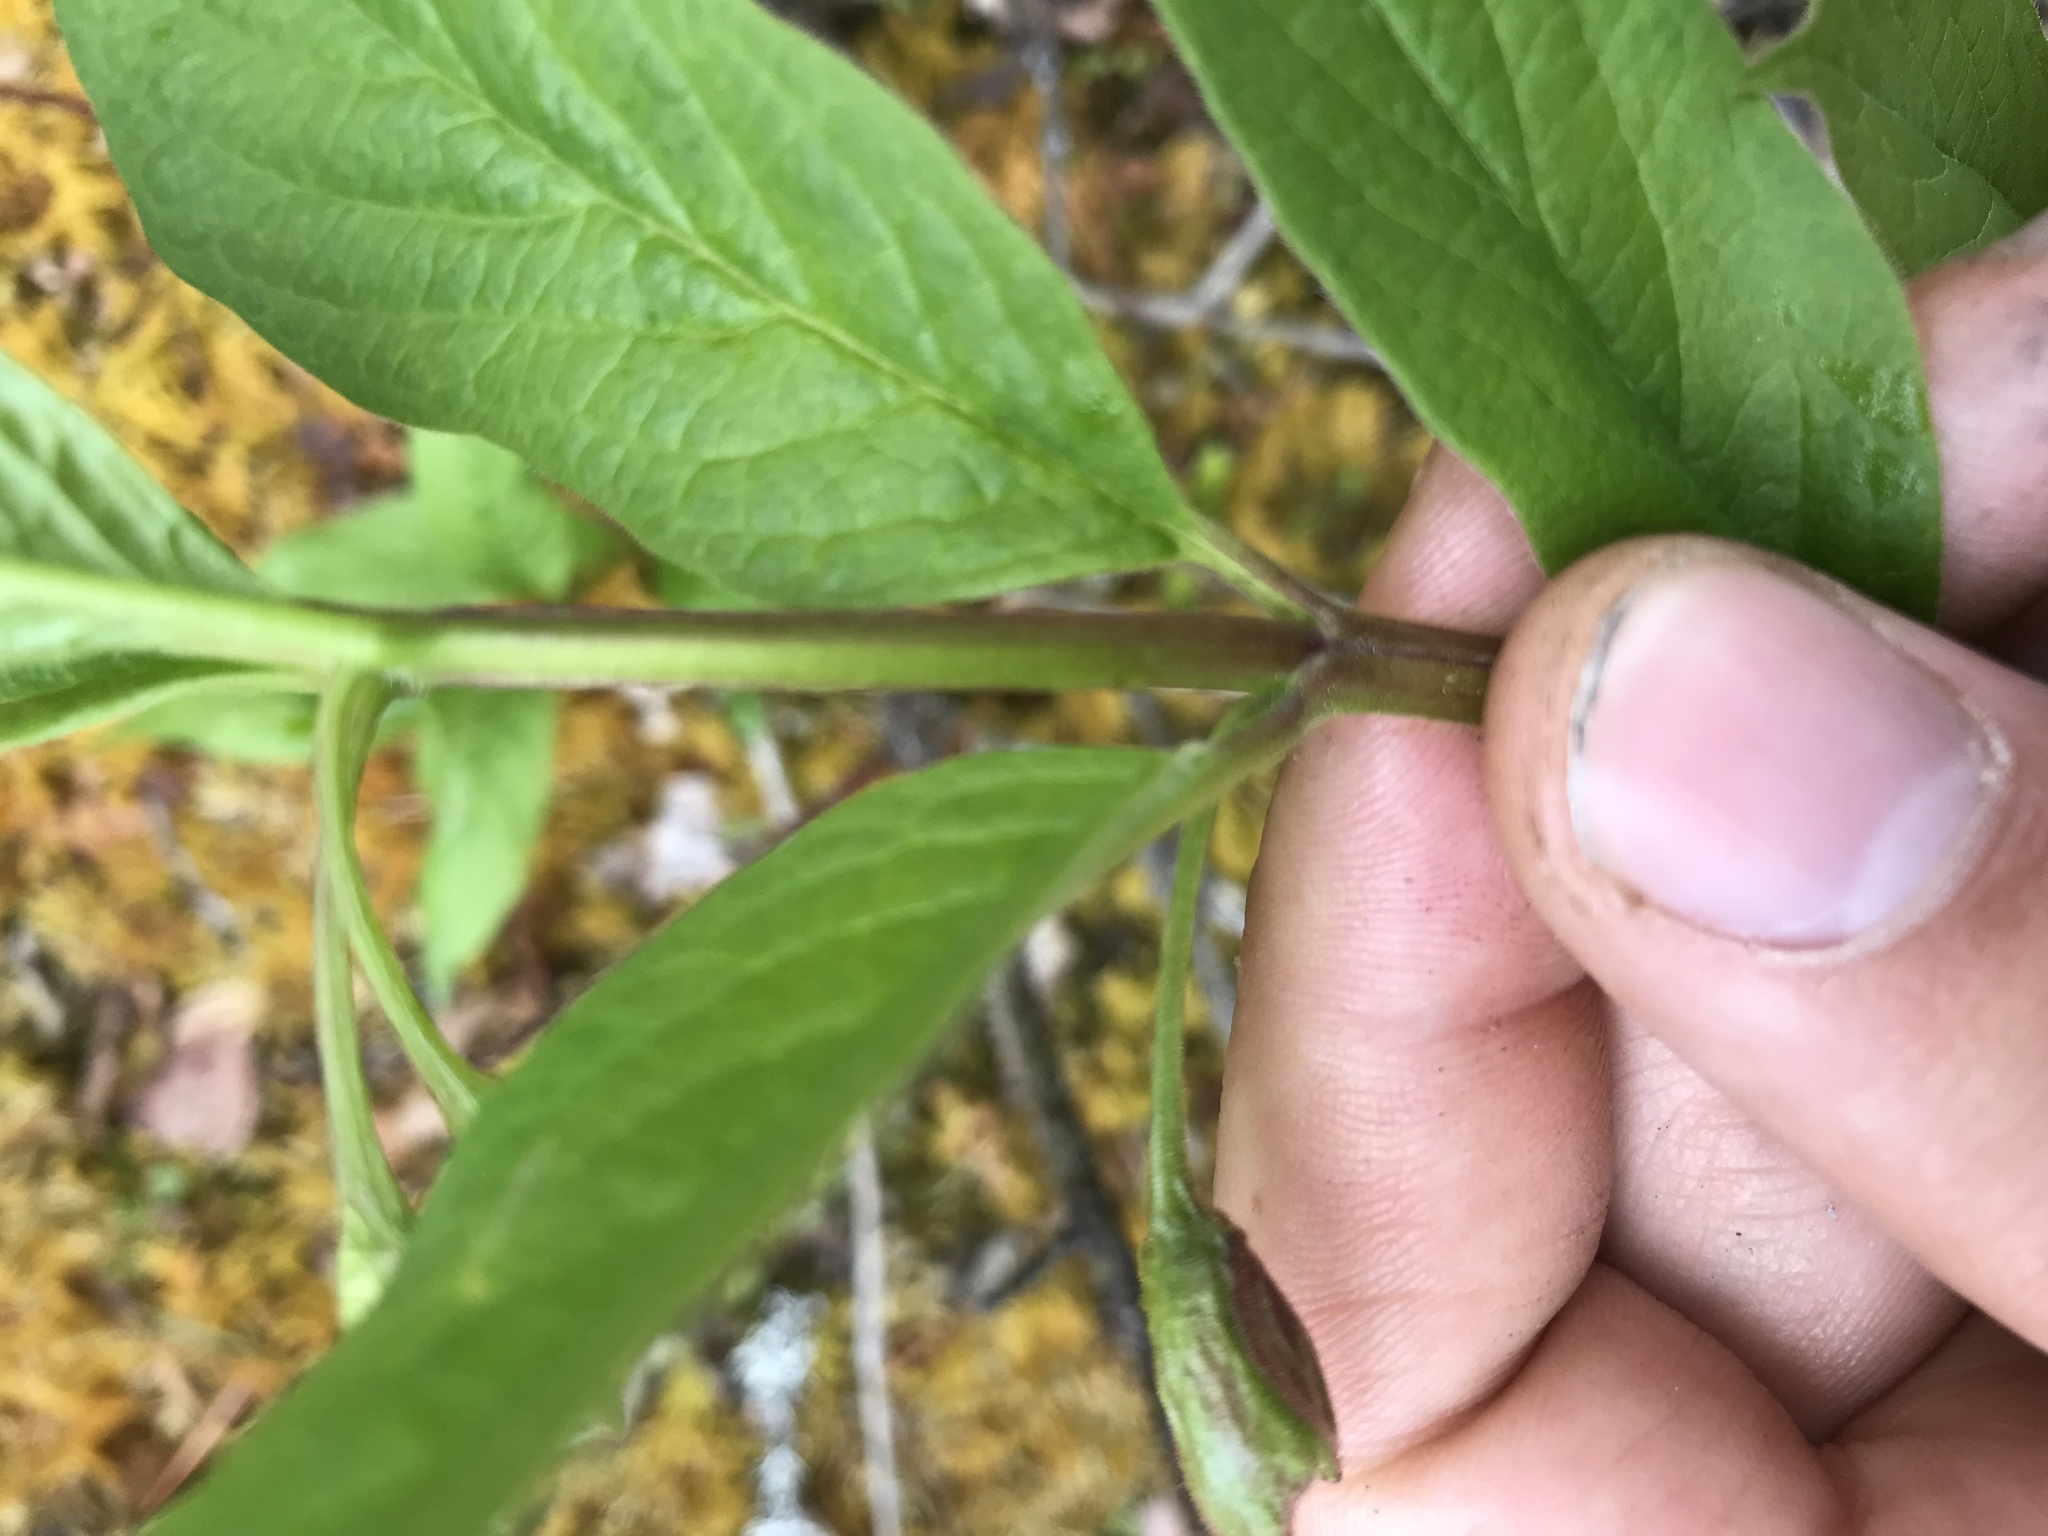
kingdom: Plantae
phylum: Tracheophyta
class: Magnoliopsida
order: Dipsacales
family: Caprifoliaceae
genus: Lonicera
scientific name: Lonicera involucrata
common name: Californian honeysuckle
